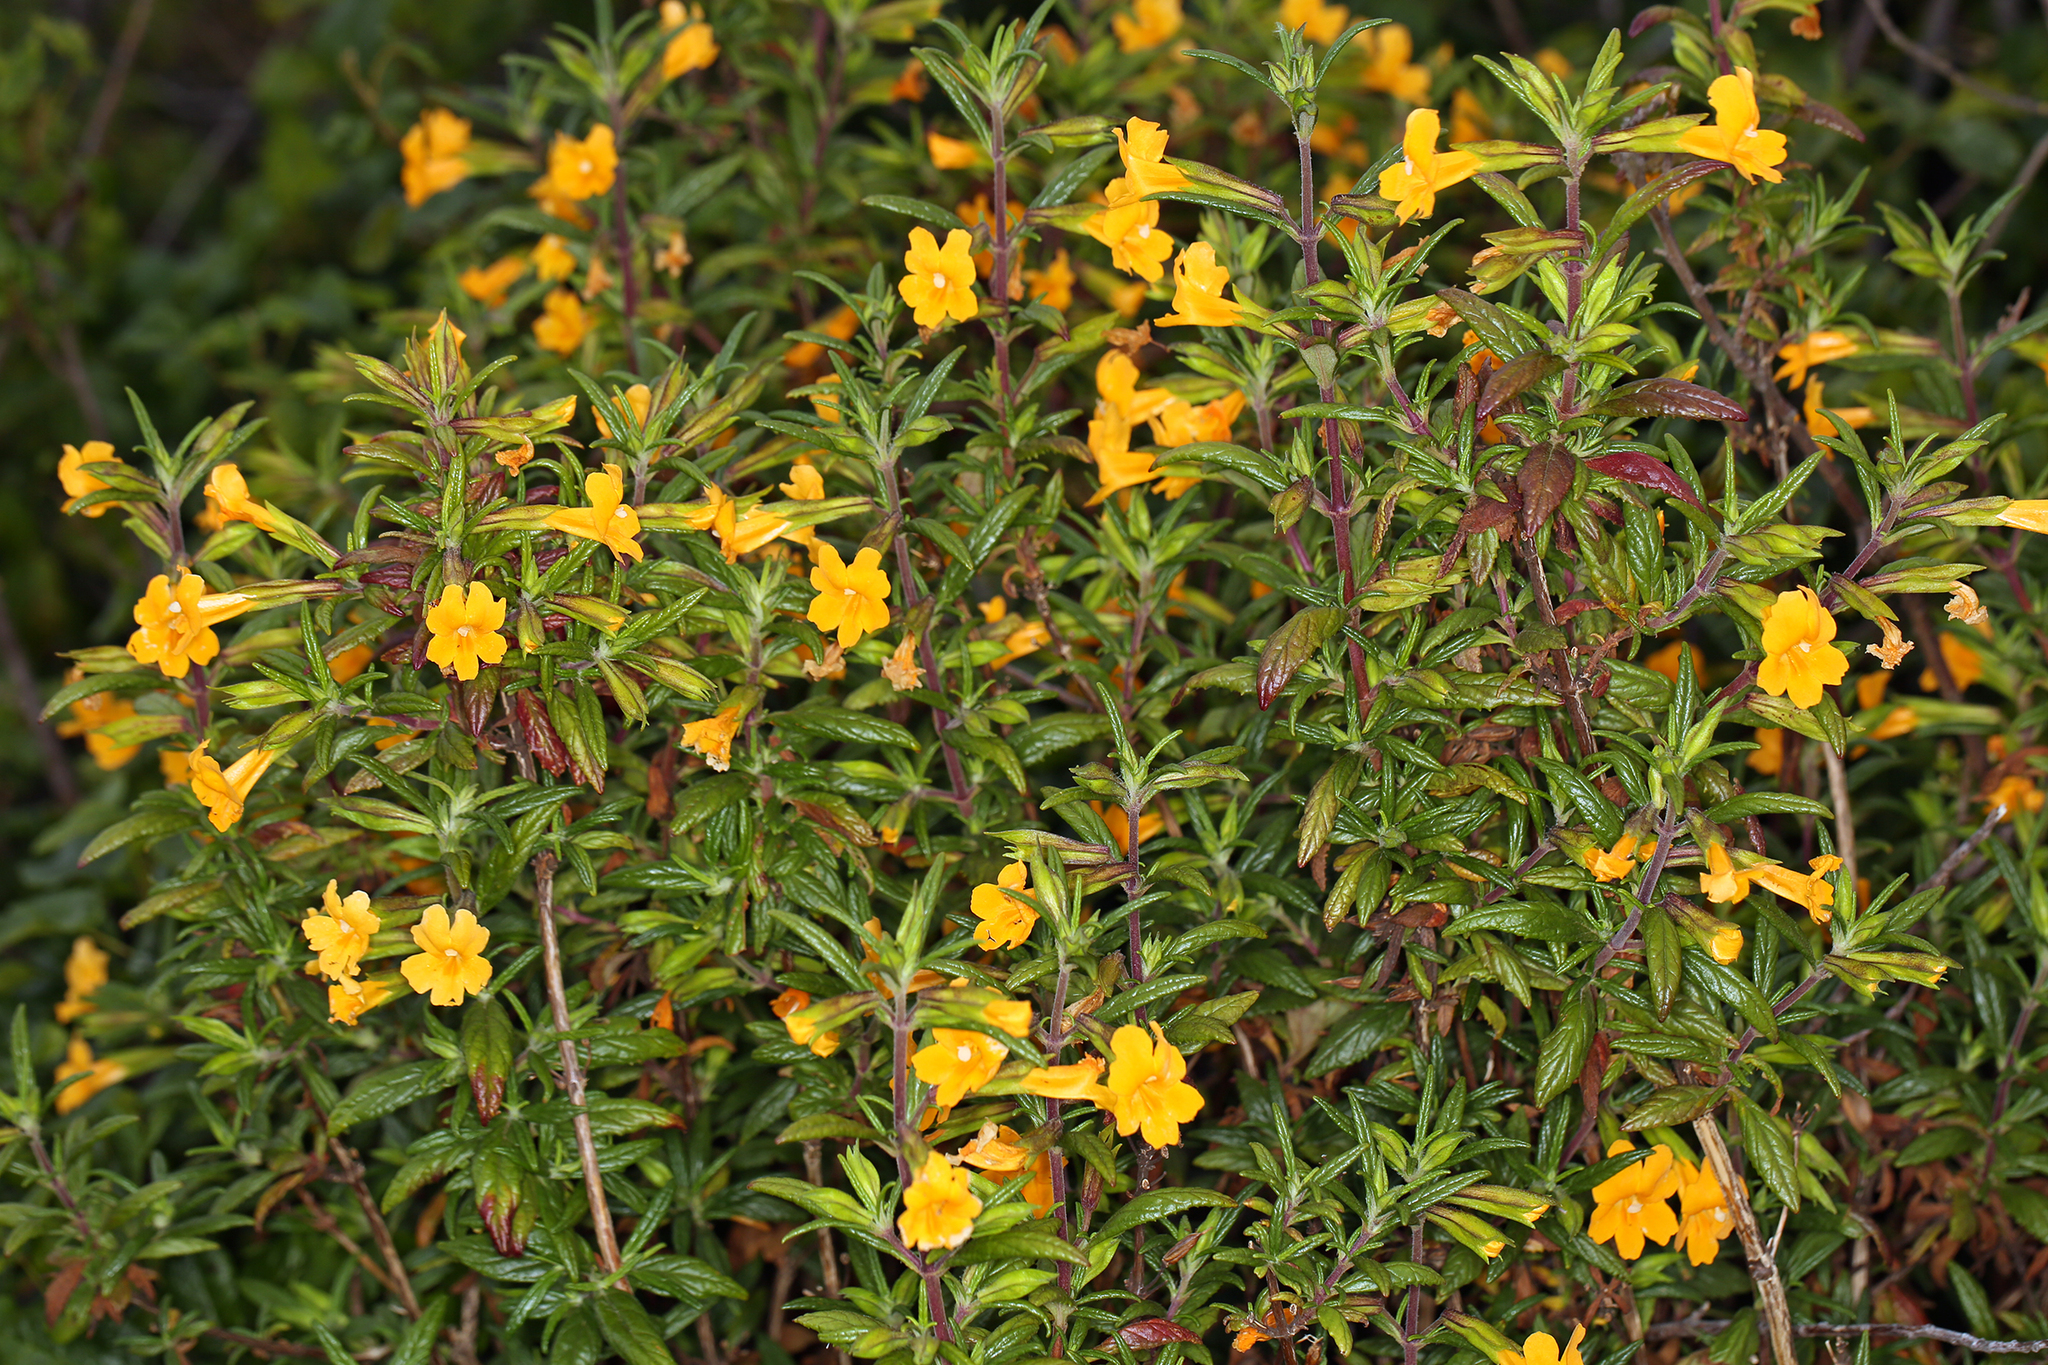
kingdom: Plantae
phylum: Tracheophyta
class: Magnoliopsida
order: Lamiales
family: Phrymaceae
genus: Diplacus
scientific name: Diplacus aurantiacus
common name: Bush monkey-flower
